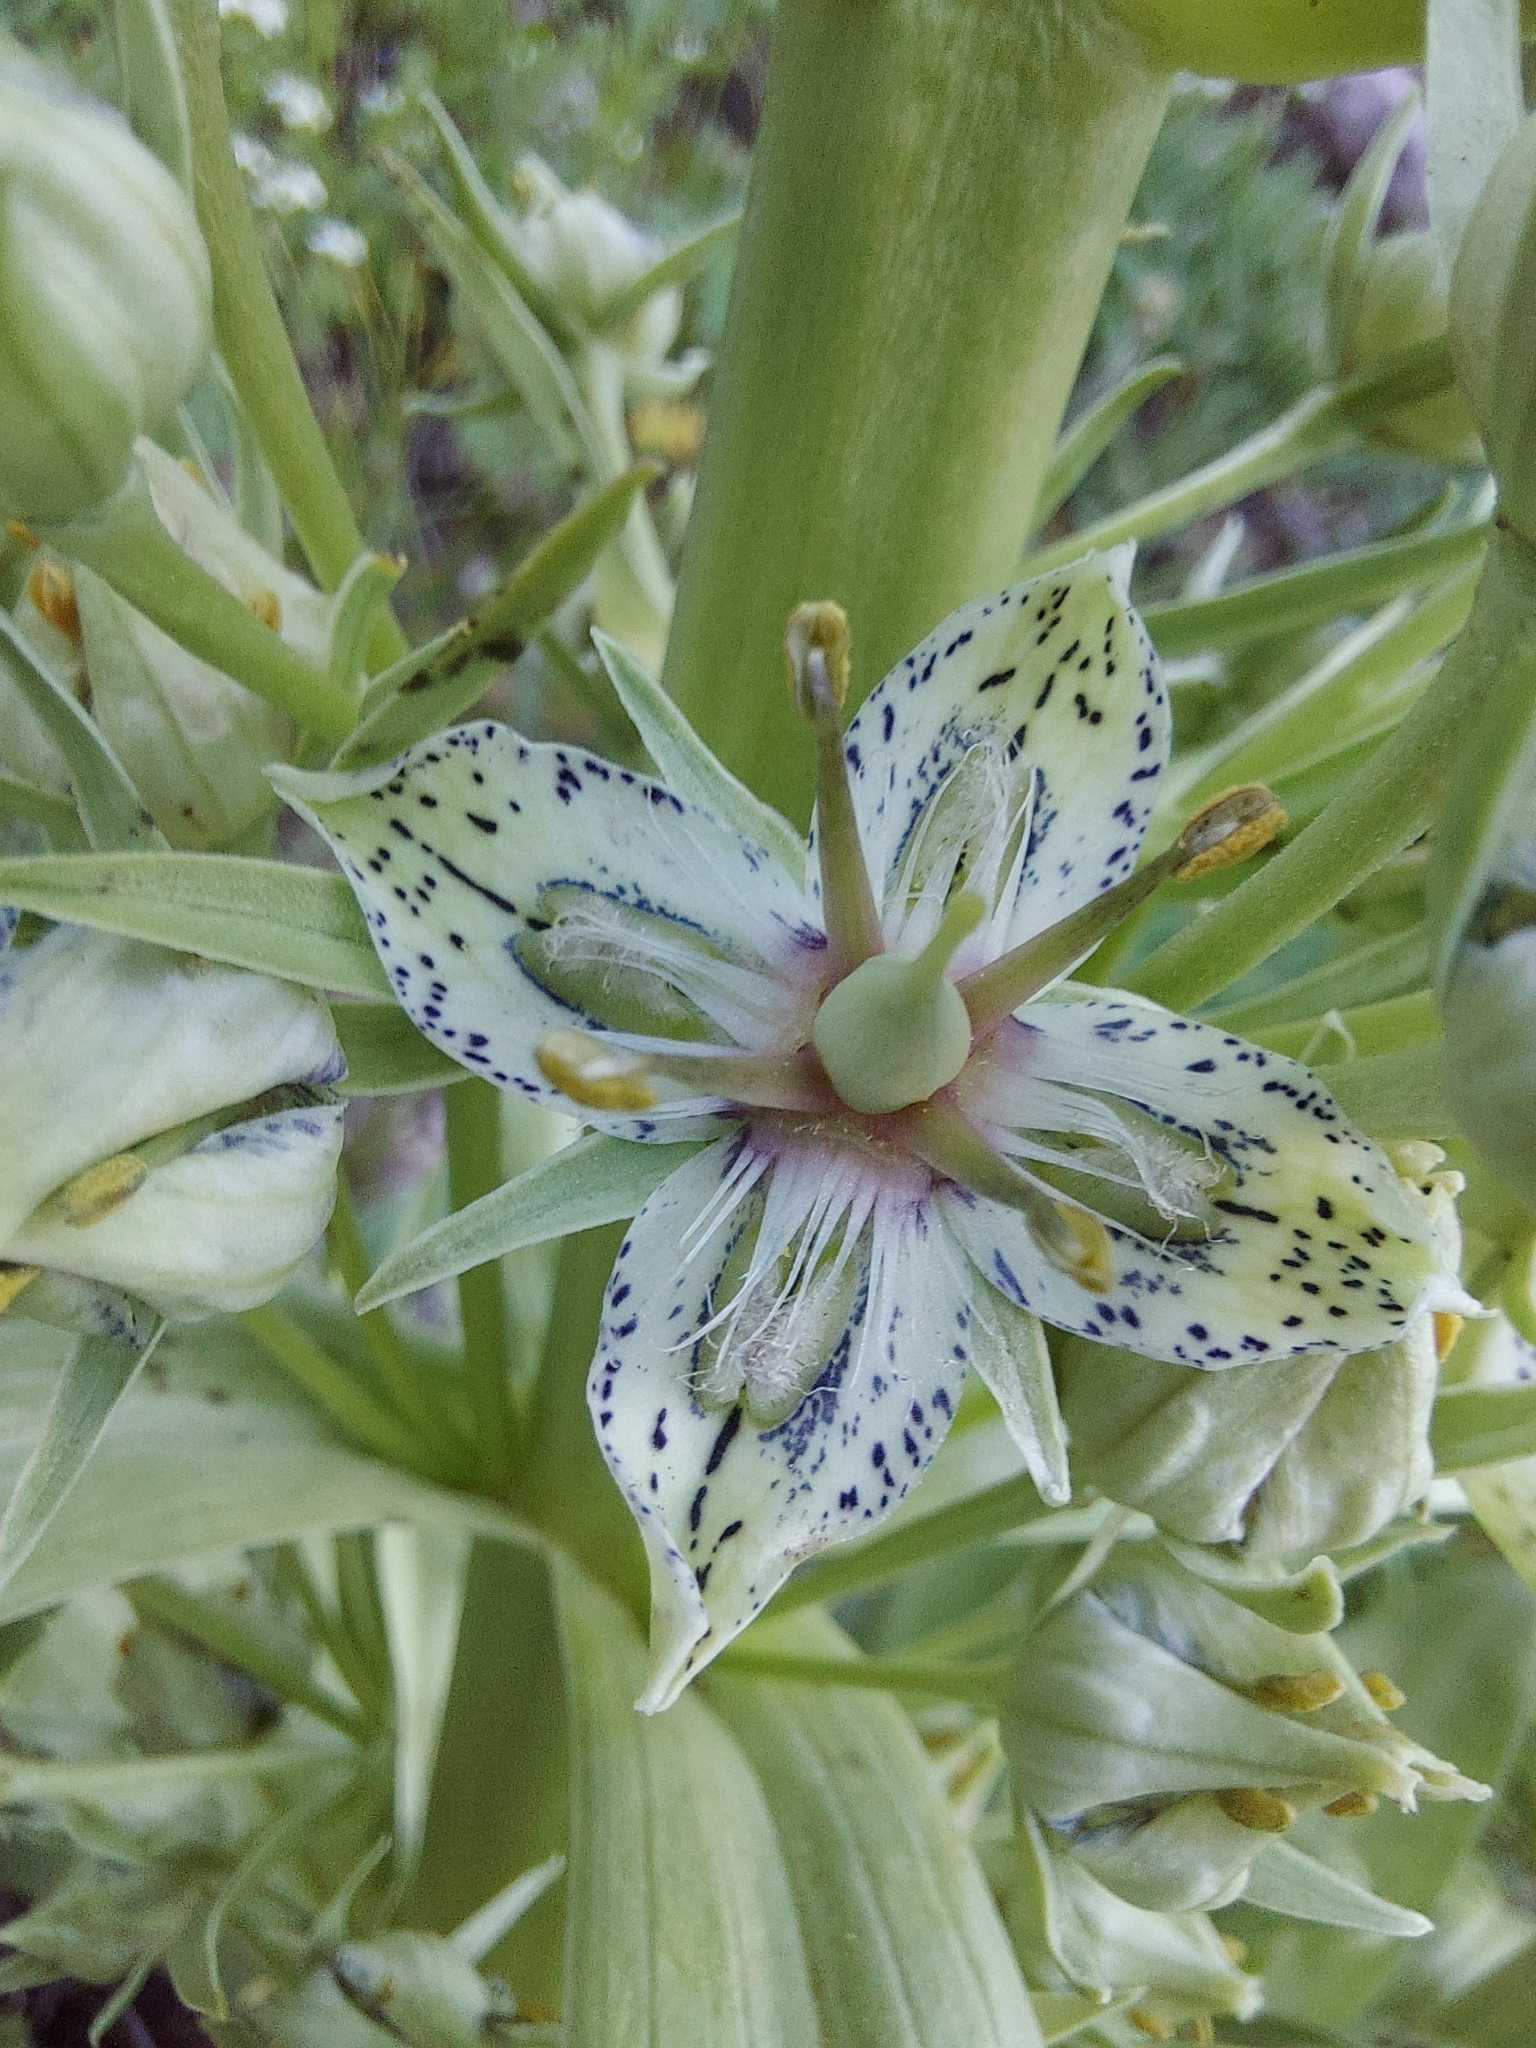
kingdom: Plantae
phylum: Tracheophyta
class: Magnoliopsida
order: Gentianales
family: Gentianaceae
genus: Frasera
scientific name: Frasera speciosa
